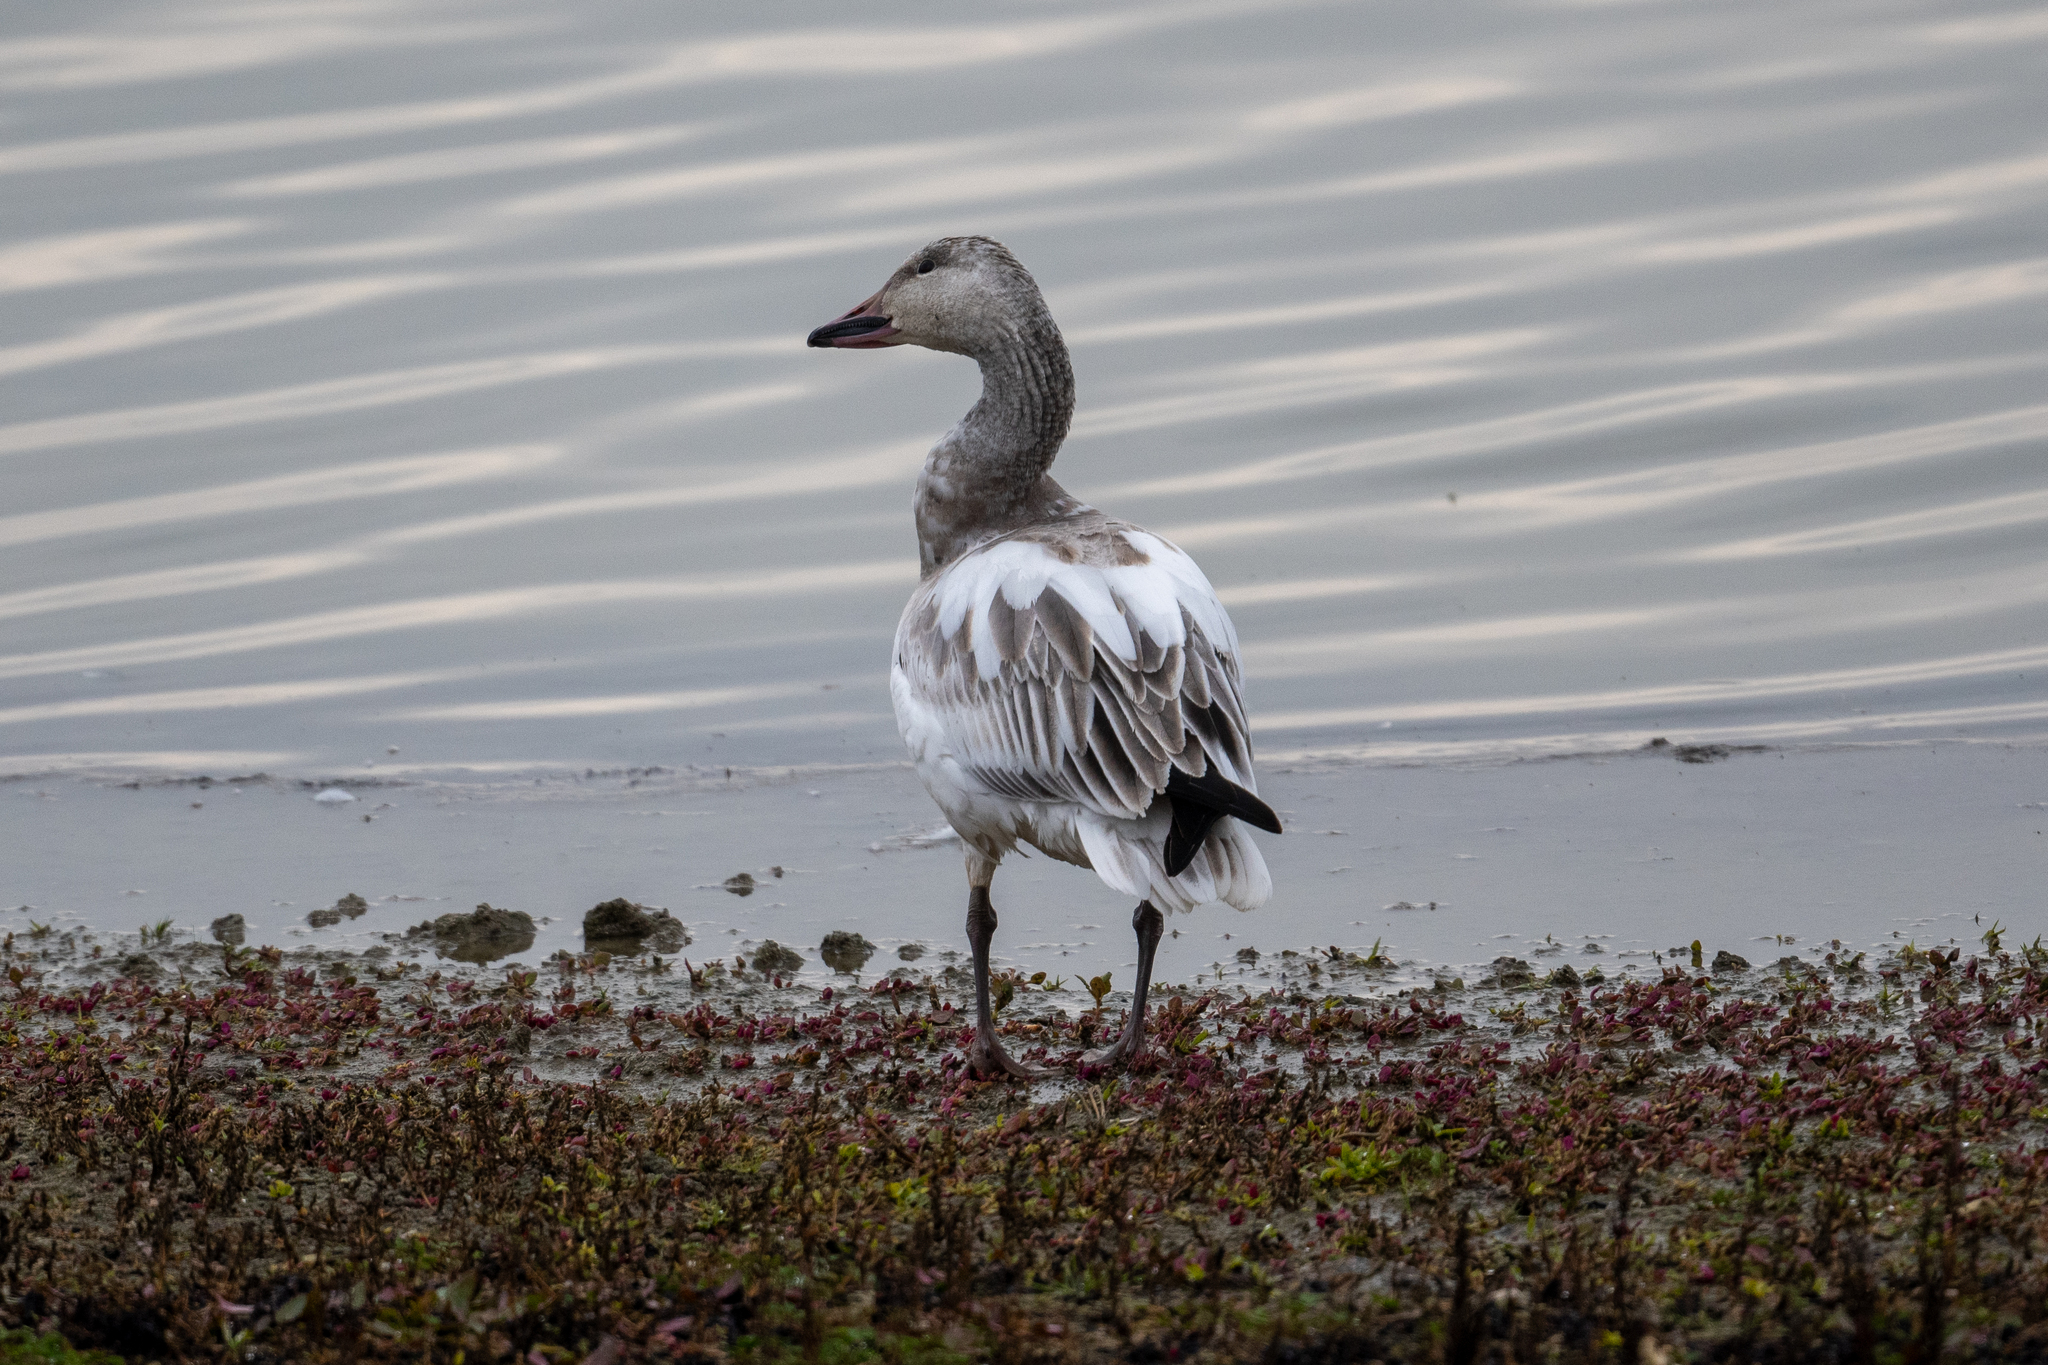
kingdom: Animalia
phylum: Chordata
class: Aves
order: Anseriformes
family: Anatidae
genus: Anser
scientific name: Anser caerulescens
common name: Snow goose
